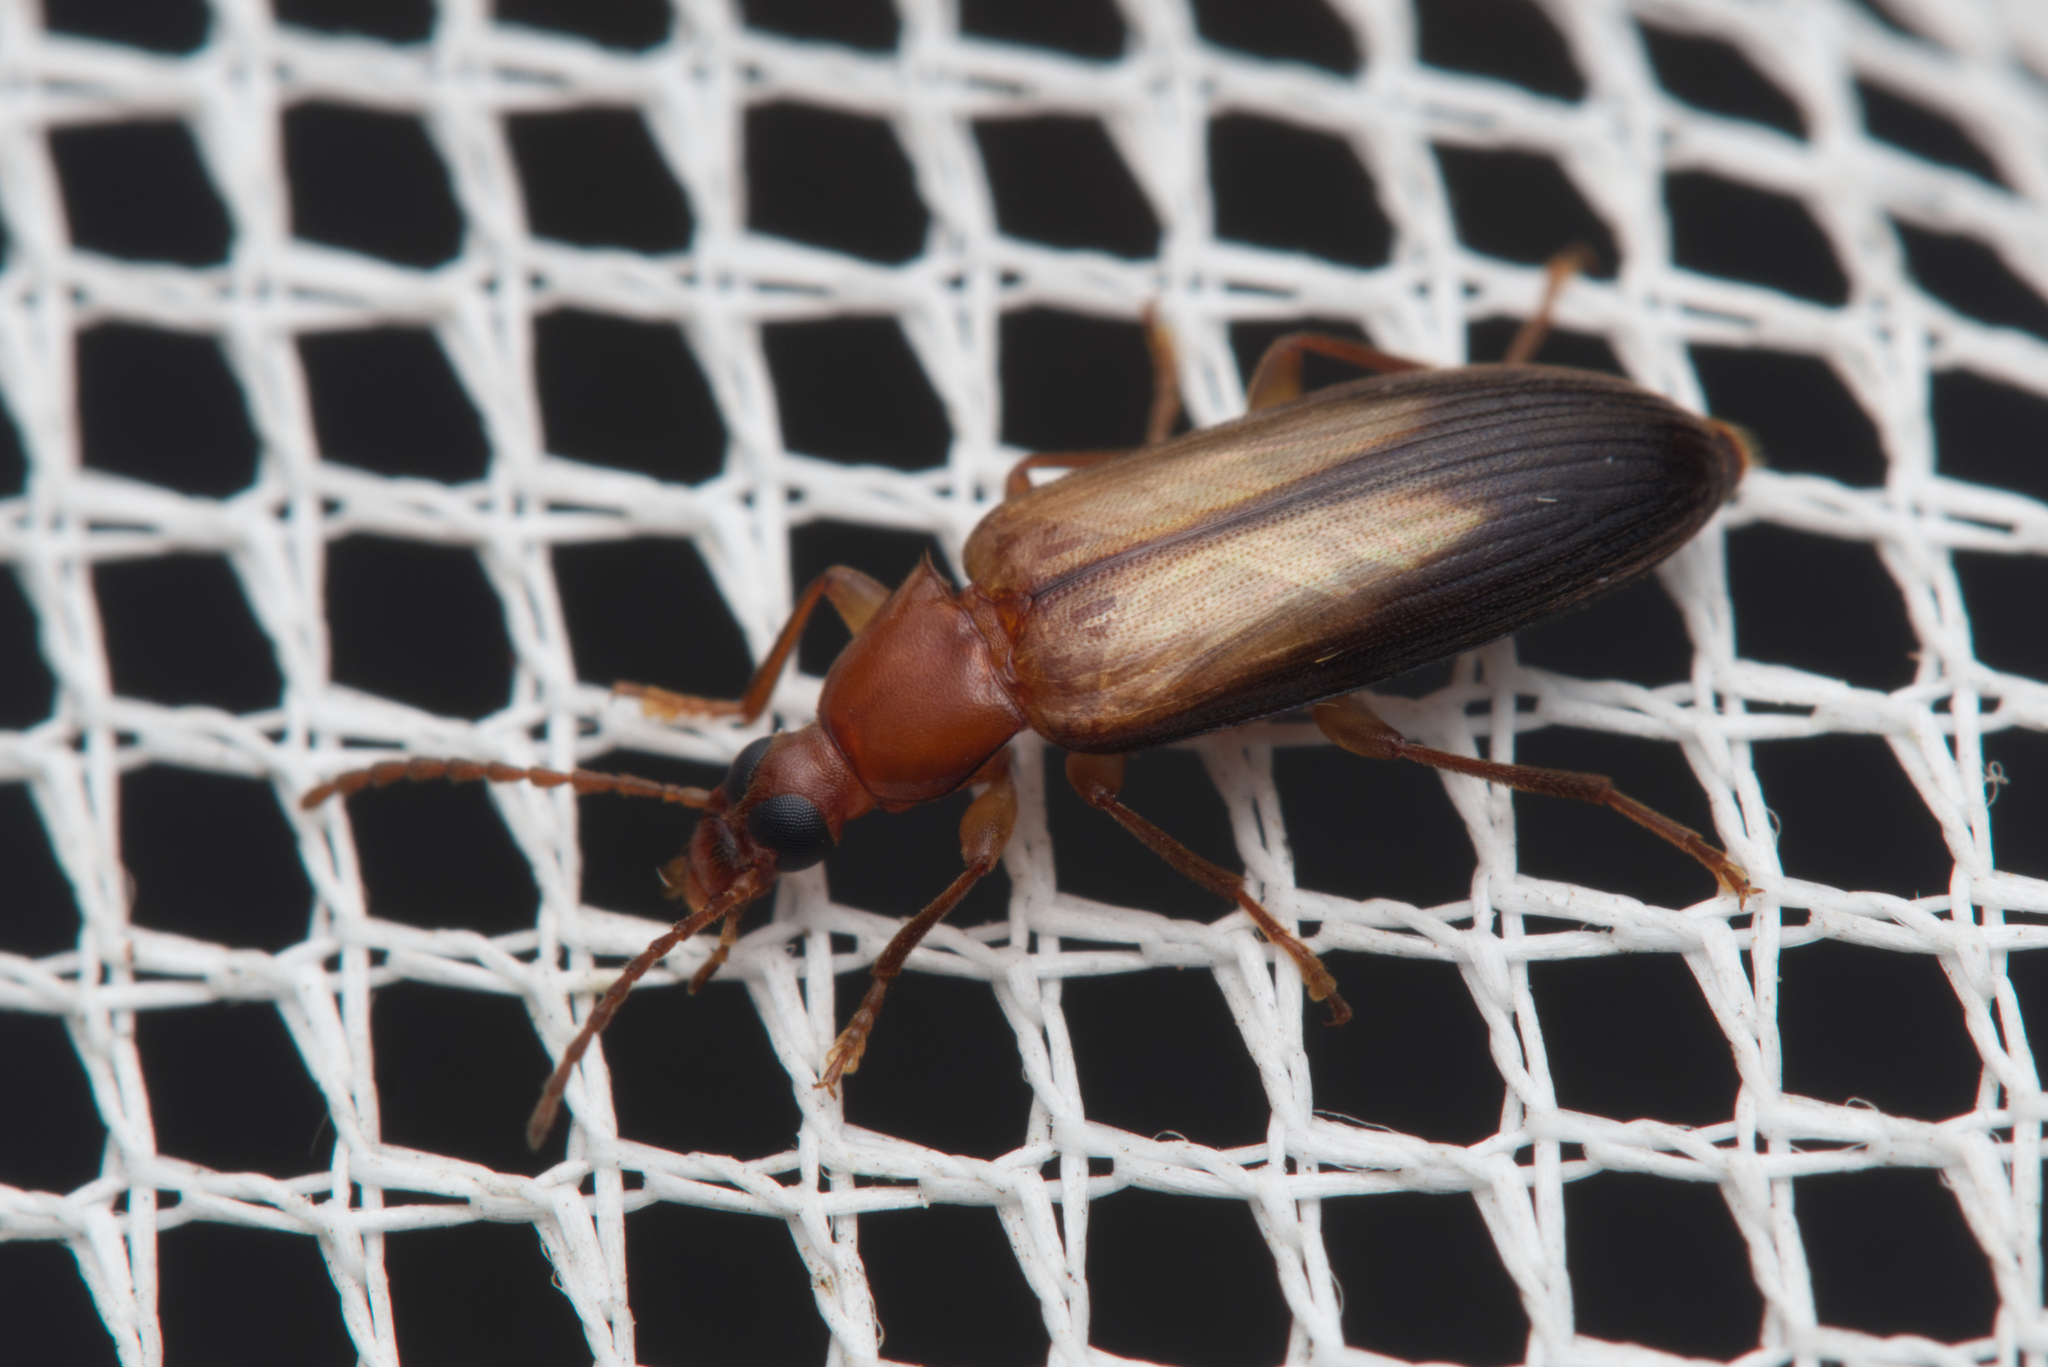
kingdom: Animalia
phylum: Arthropoda
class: Insecta
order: Coleoptera
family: Tenebrionidae
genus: Euomma
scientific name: Euomma
